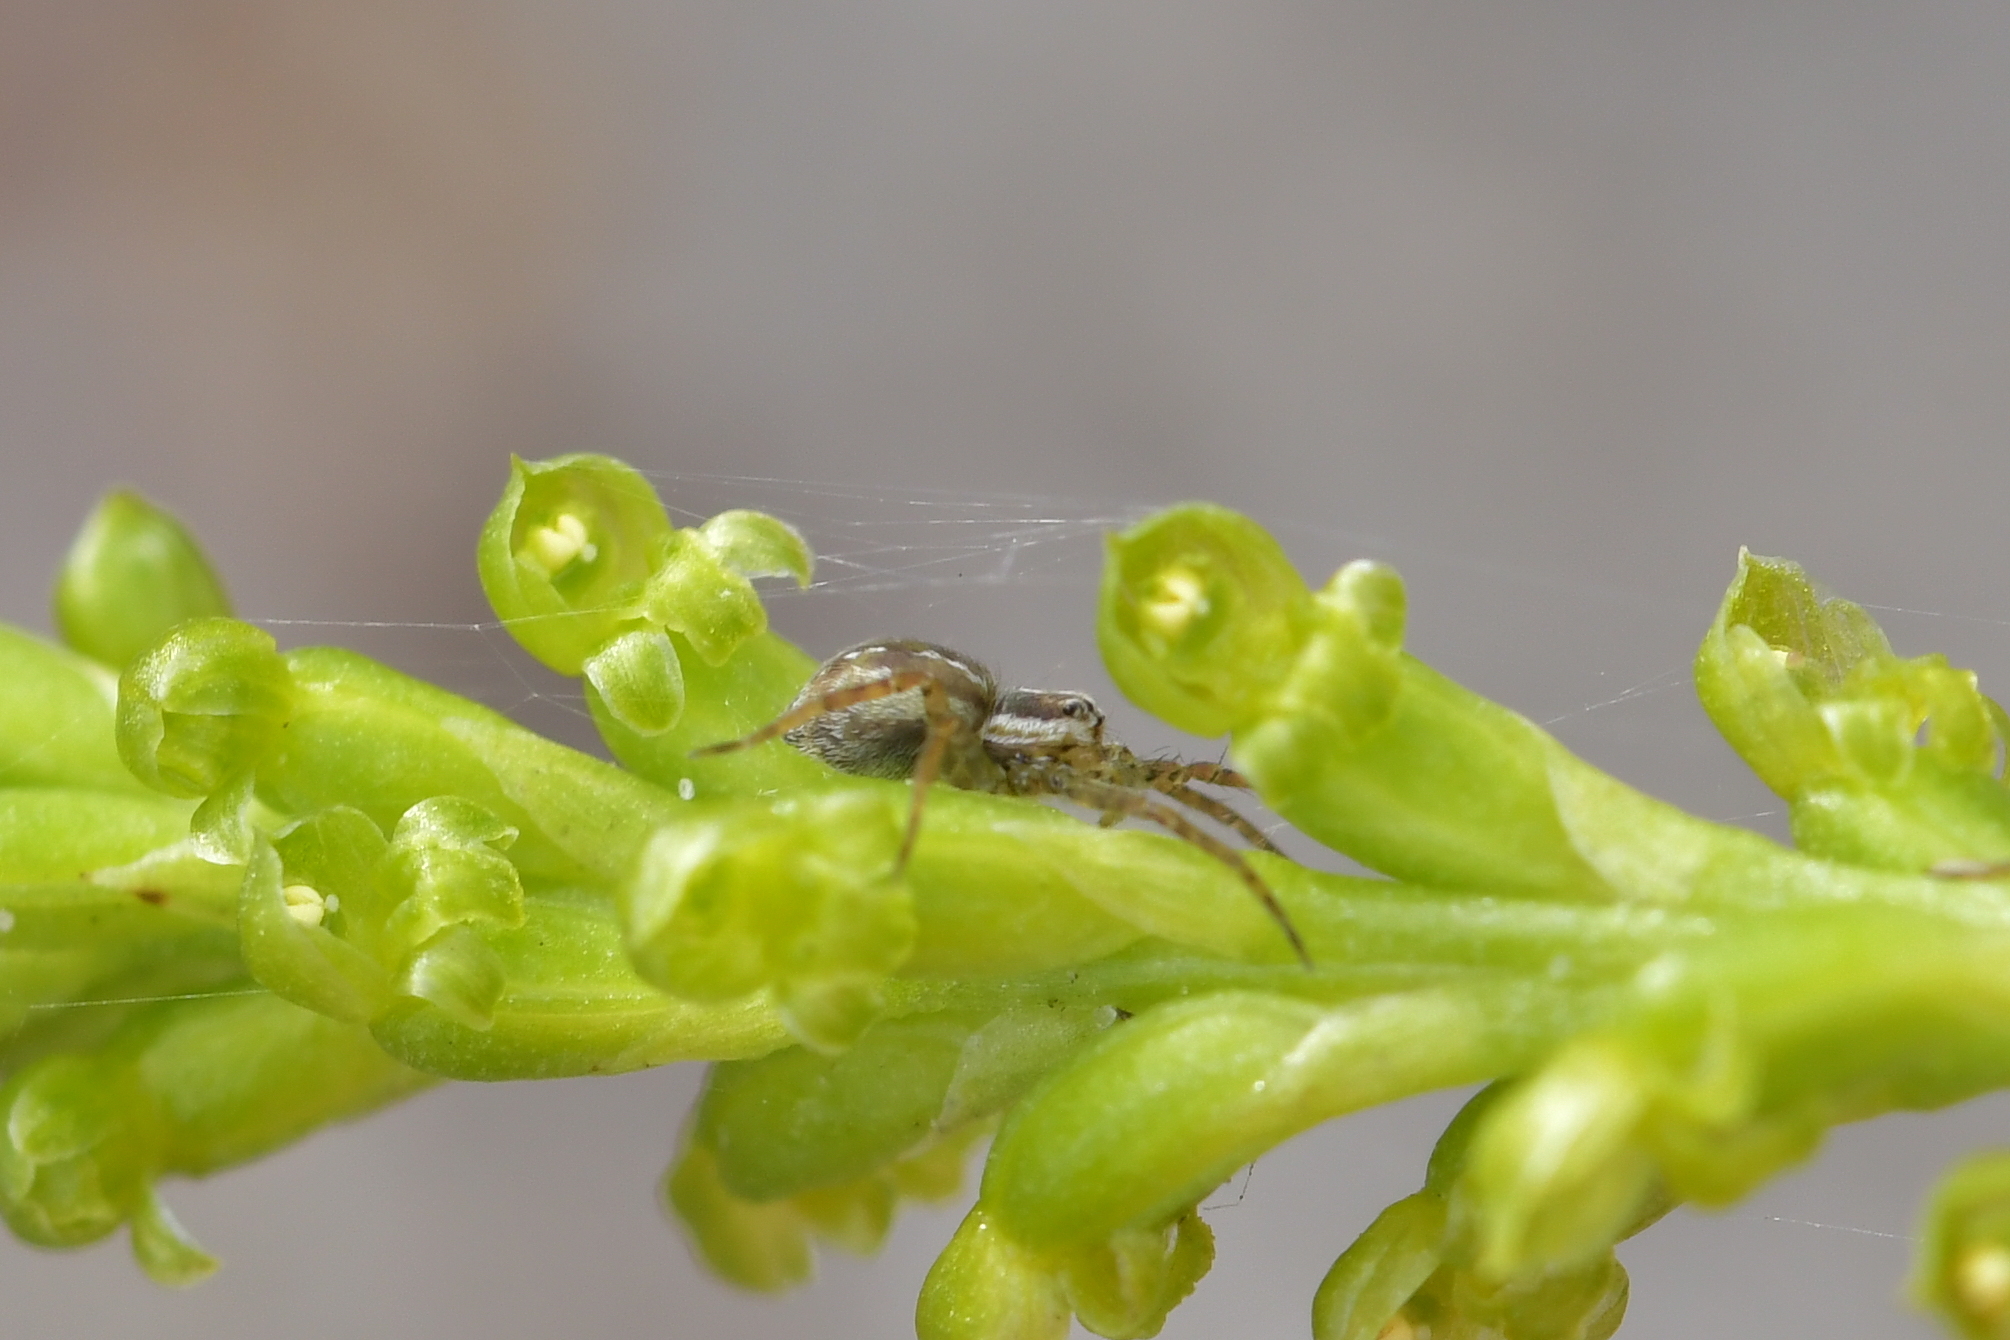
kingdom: Animalia
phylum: Arthropoda
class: Arachnida
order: Araneae
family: Pisauridae
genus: Dolomedes
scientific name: Dolomedes minor
